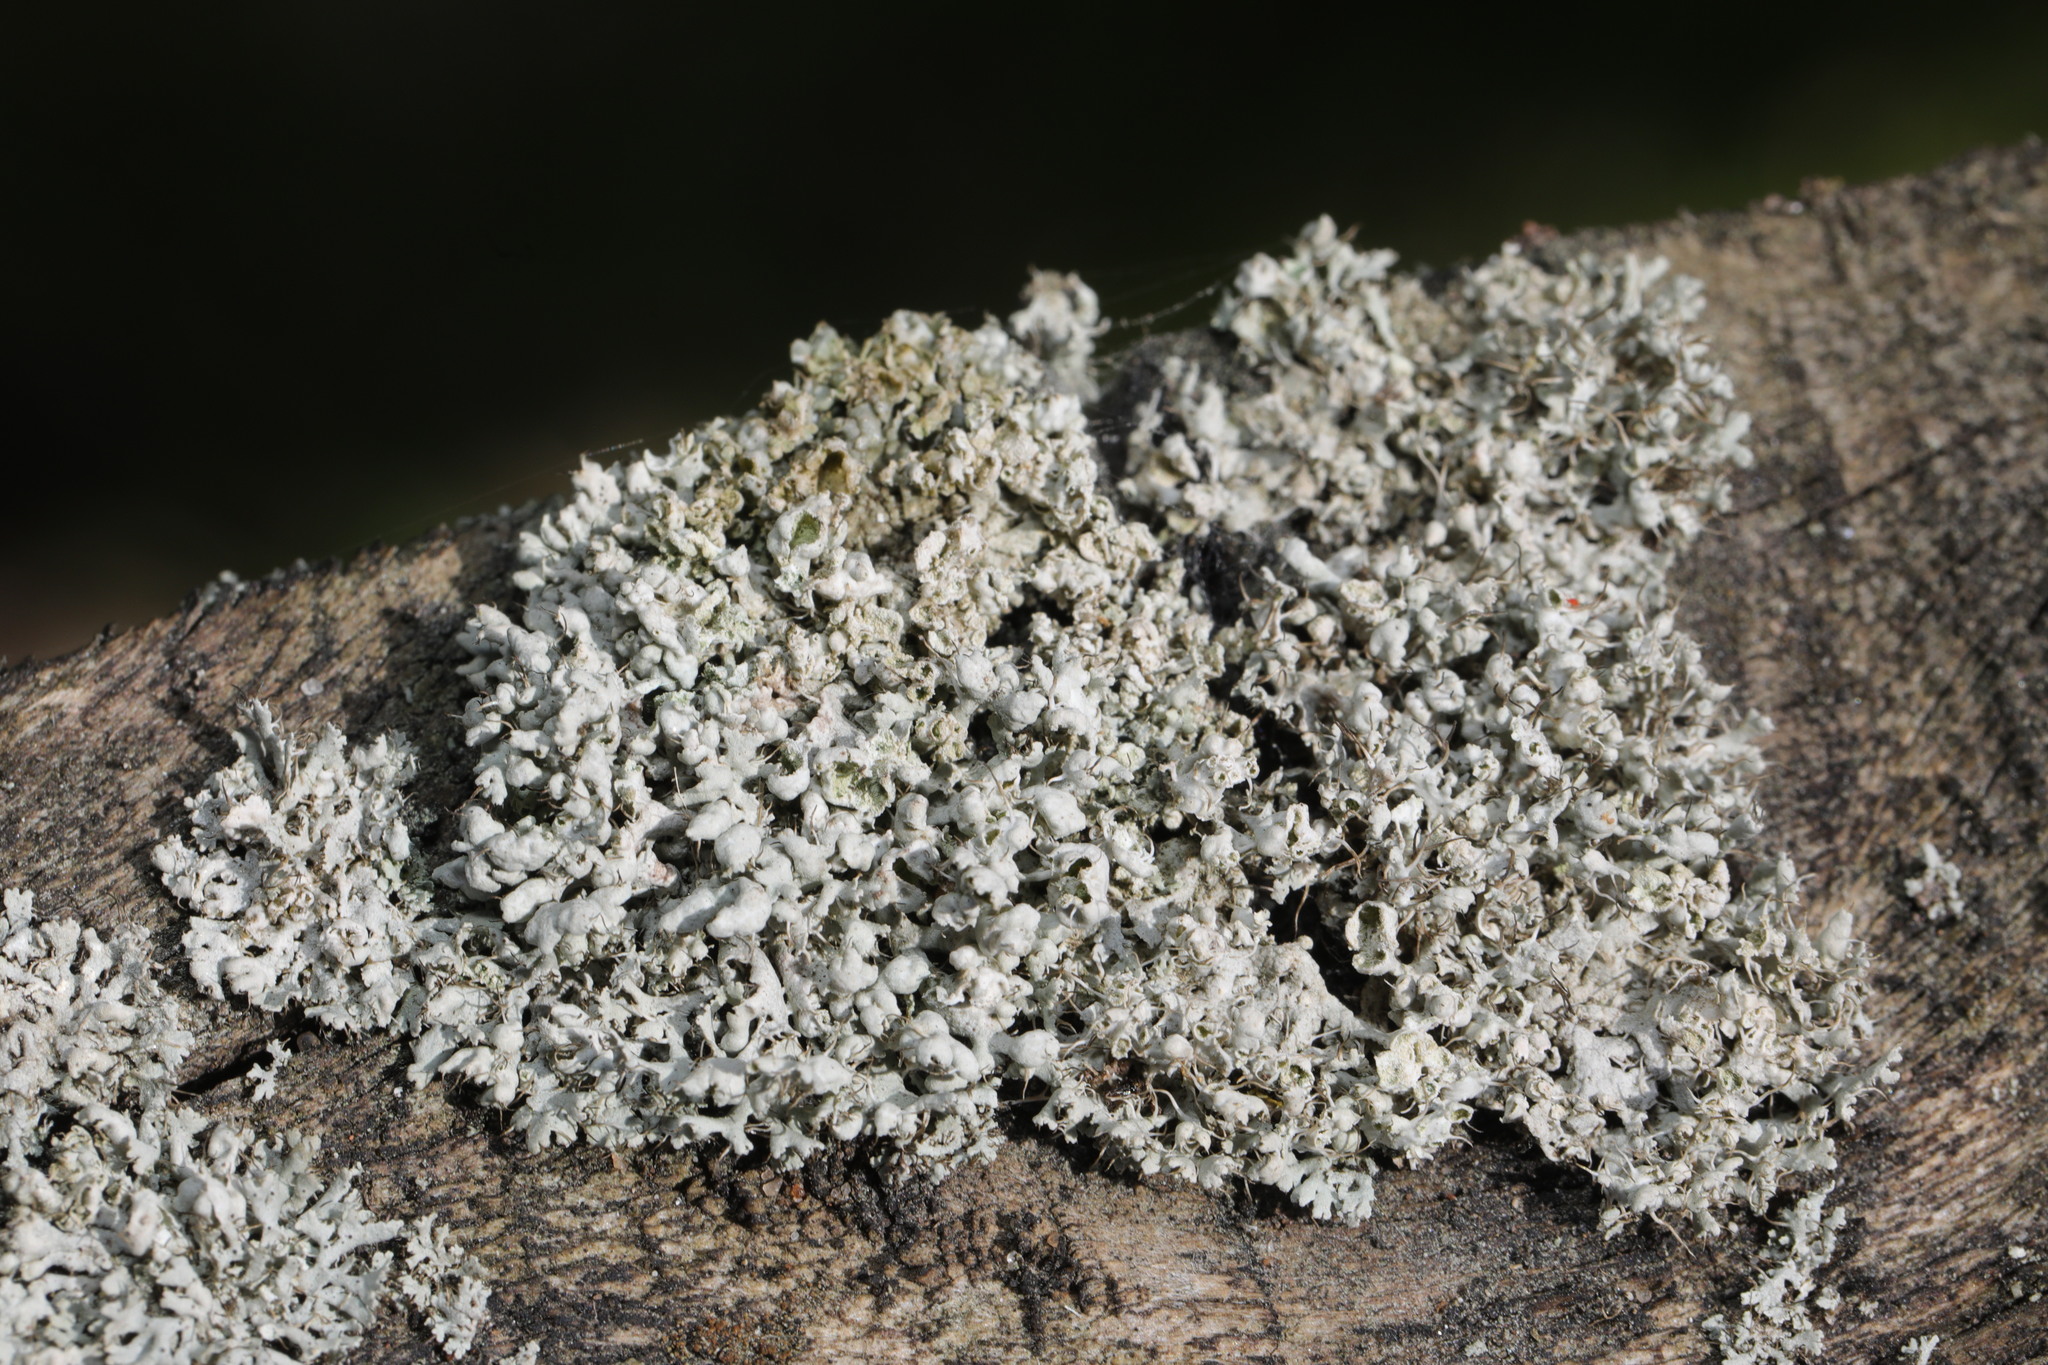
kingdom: Fungi
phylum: Ascomycota
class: Lecanoromycetes
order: Caliciales
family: Physciaceae
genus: Physcia
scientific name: Physcia adscendens
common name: Hooded rosette lichen
